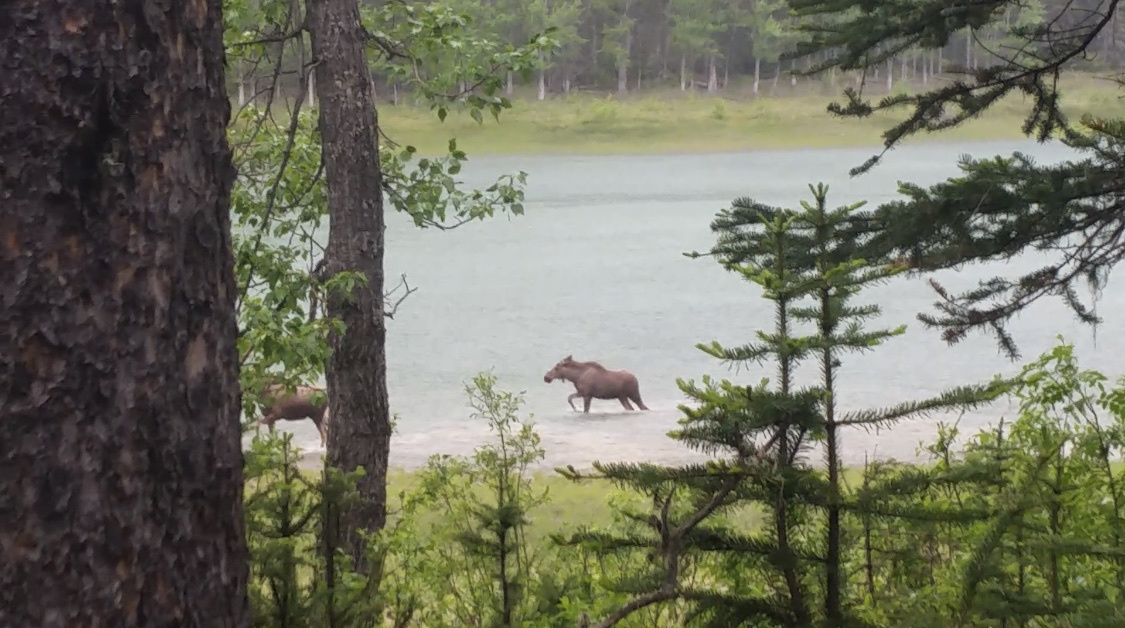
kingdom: Animalia
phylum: Chordata
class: Mammalia
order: Artiodactyla
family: Cervidae
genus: Alces
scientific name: Alces alces
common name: Moose
